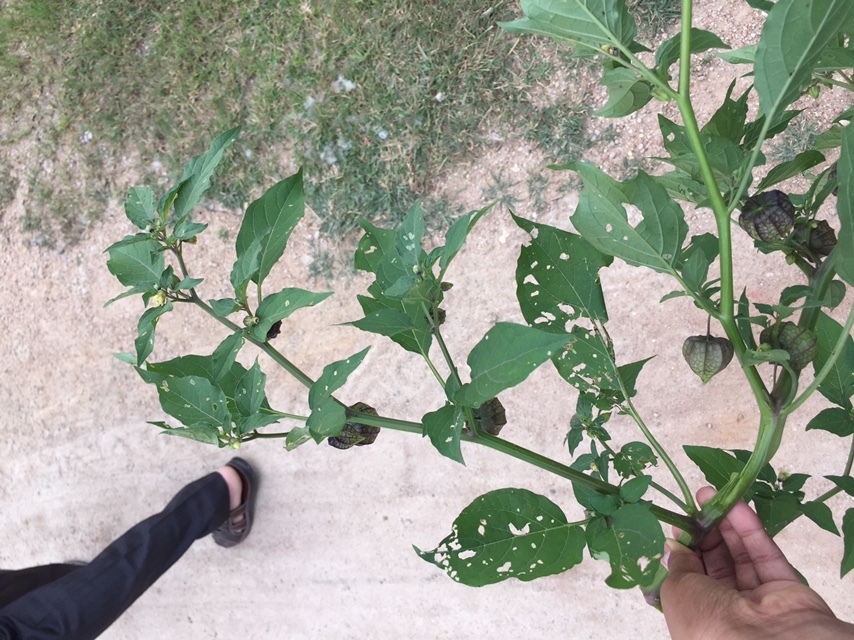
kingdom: Plantae
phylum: Tracheophyta
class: Magnoliopsida
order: Solanales
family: Solanaceae
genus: Physalis
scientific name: Physalis angulata
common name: Angular winter-cherry
